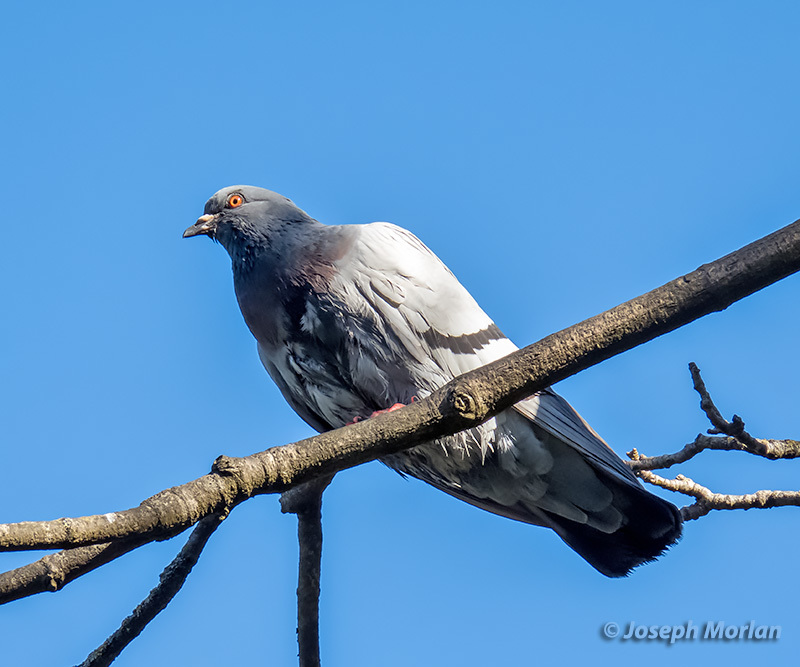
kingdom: Animalia
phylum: Chordata
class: Aves
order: Columbiformes
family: Columbidae
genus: Columba
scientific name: Columba livia
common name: Rock pigeon
